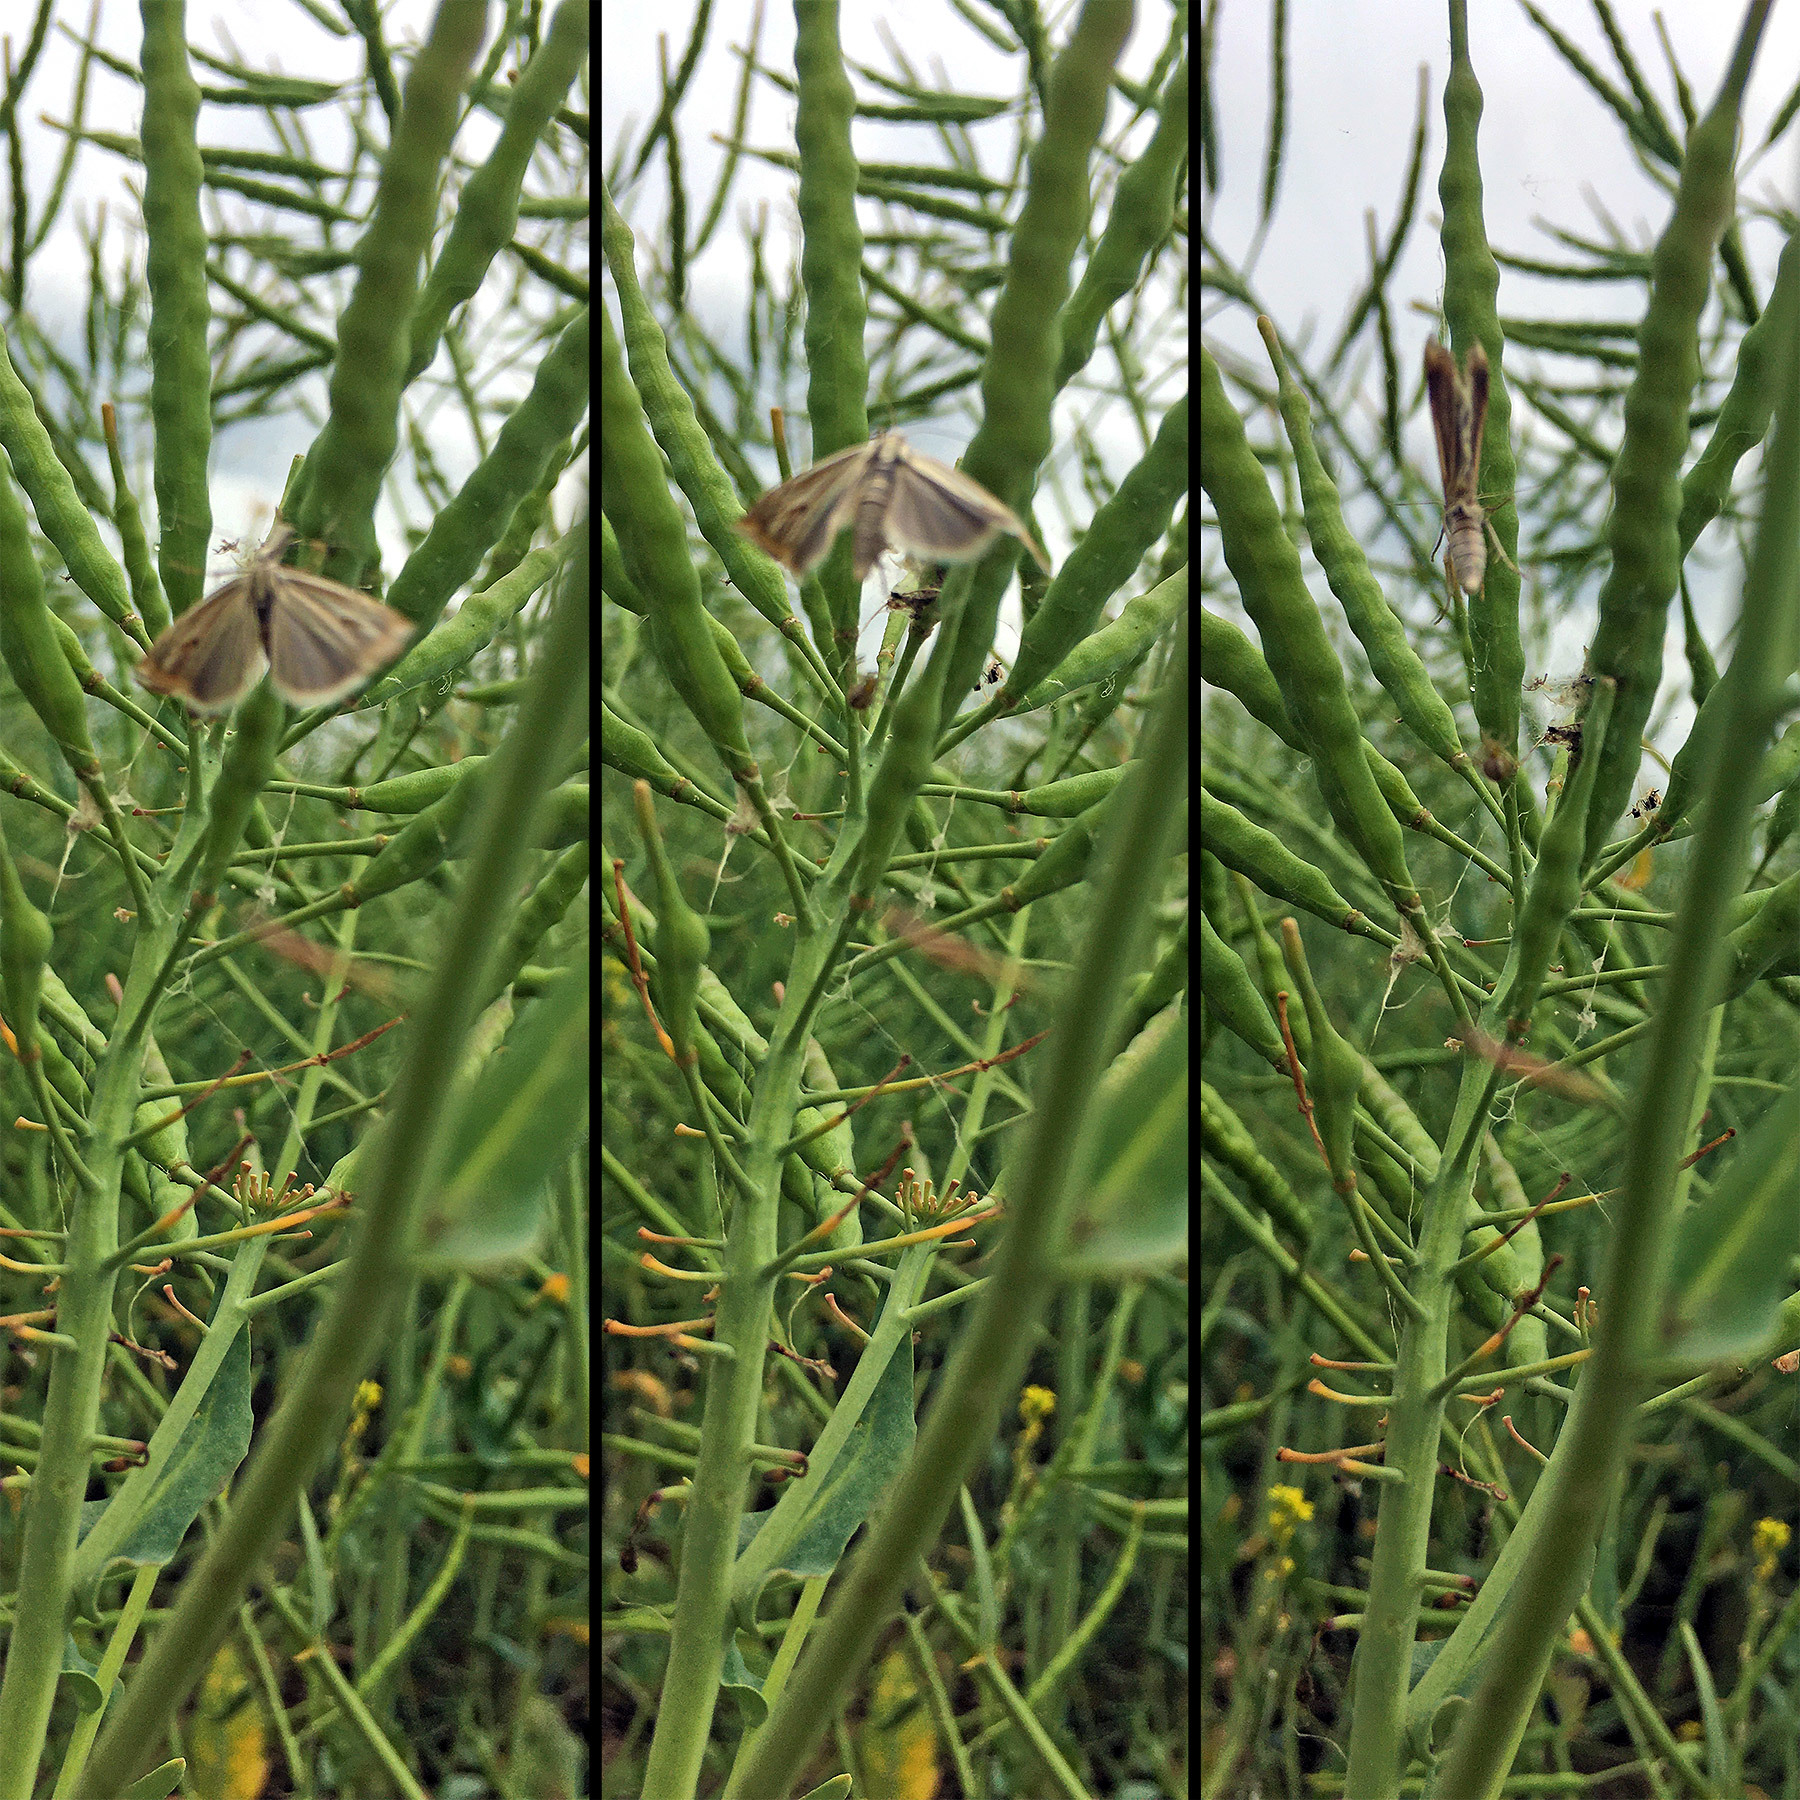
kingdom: Animalia
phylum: Arthropoda
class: Insecta
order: Lepidoptera
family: Crambidae
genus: Crambus
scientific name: Crambus nemorella
